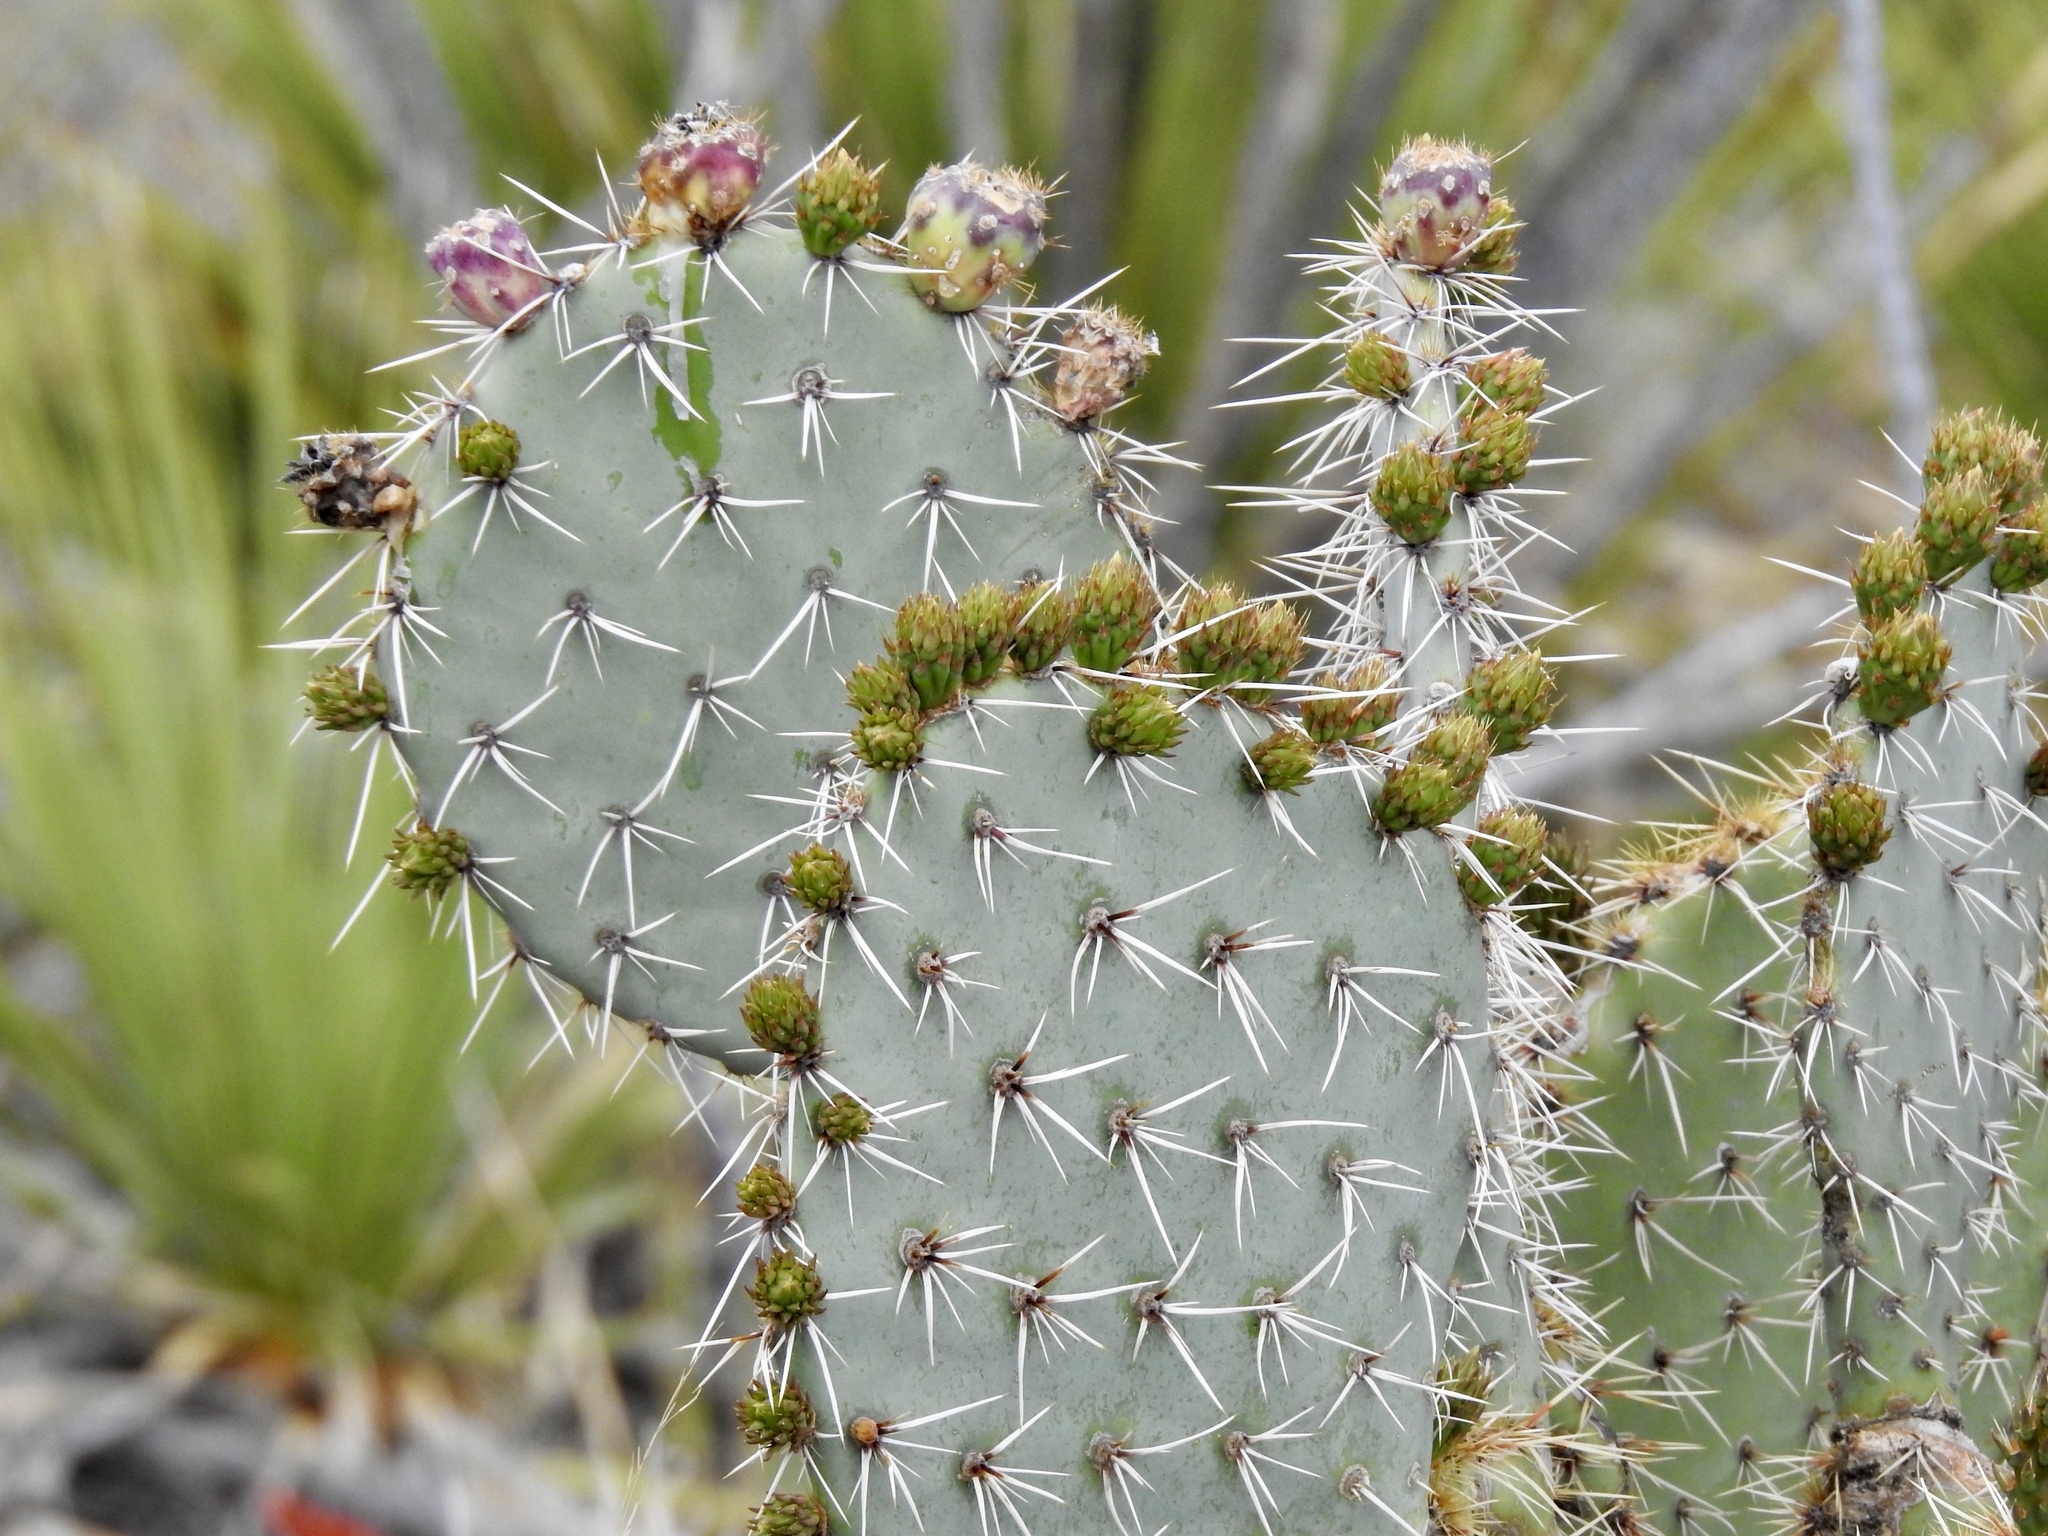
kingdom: Plantae
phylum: Tracheophyta
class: Magnoliopsida
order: Caryophyllales
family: Cactaceae
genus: Opuntia
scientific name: Opuntia engelmannii
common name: Cactus-apple
